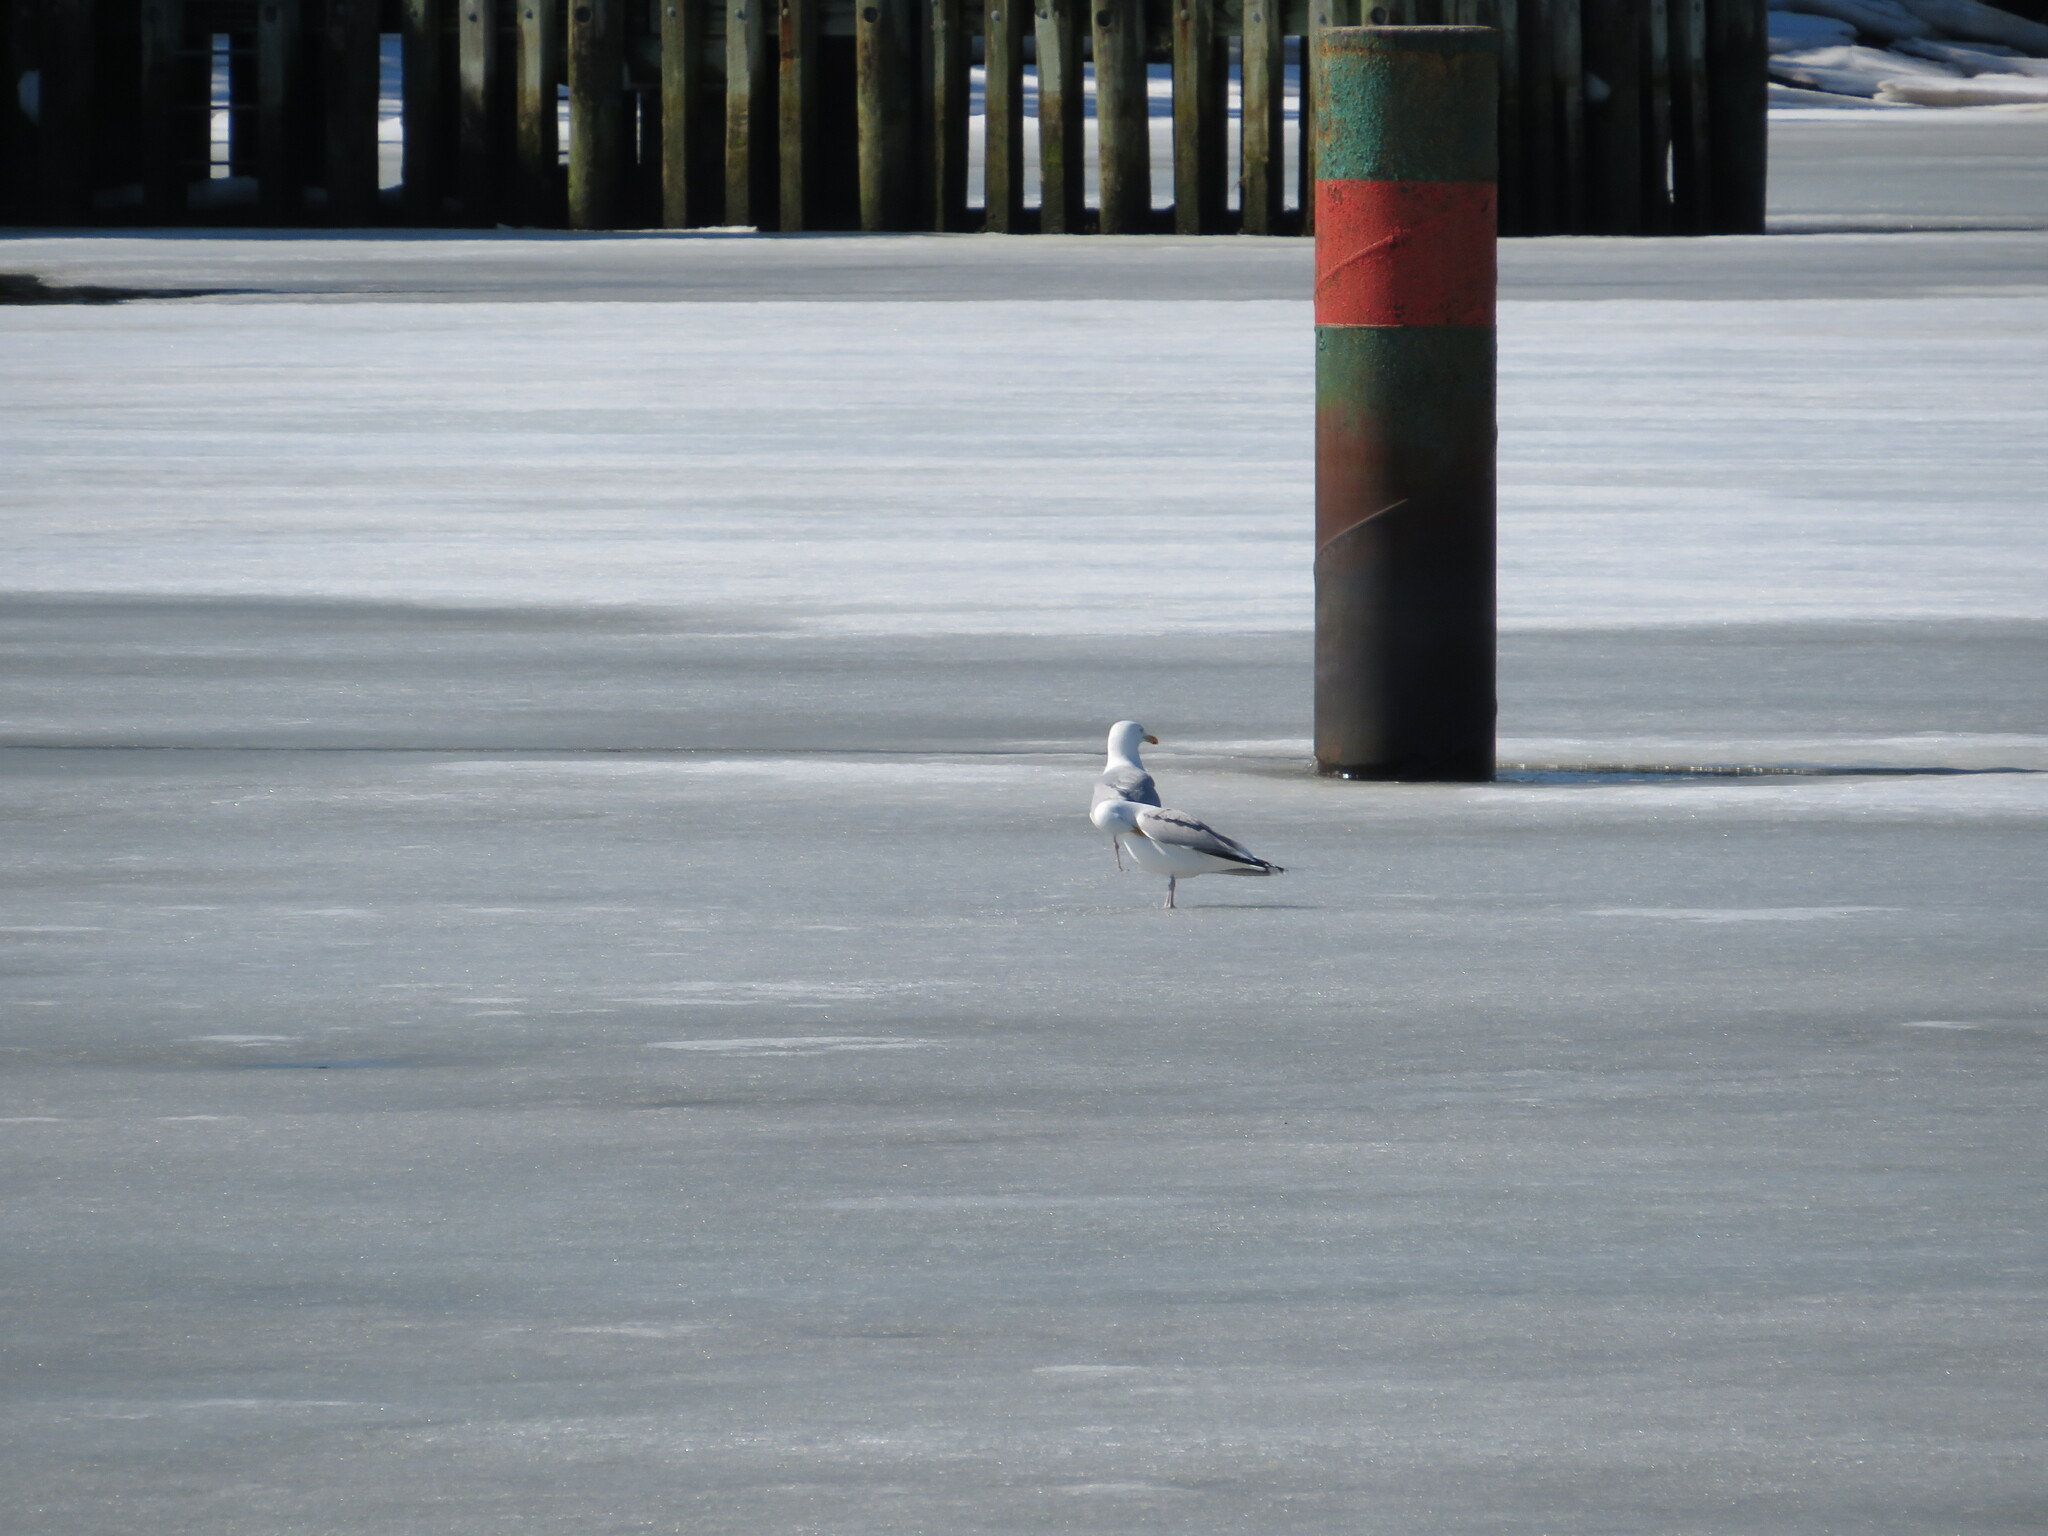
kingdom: Animalia
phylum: Chordata
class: Aves
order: Charadriiformes
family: Laridae
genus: Larus
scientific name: Larus argentatus
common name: Herring gull
